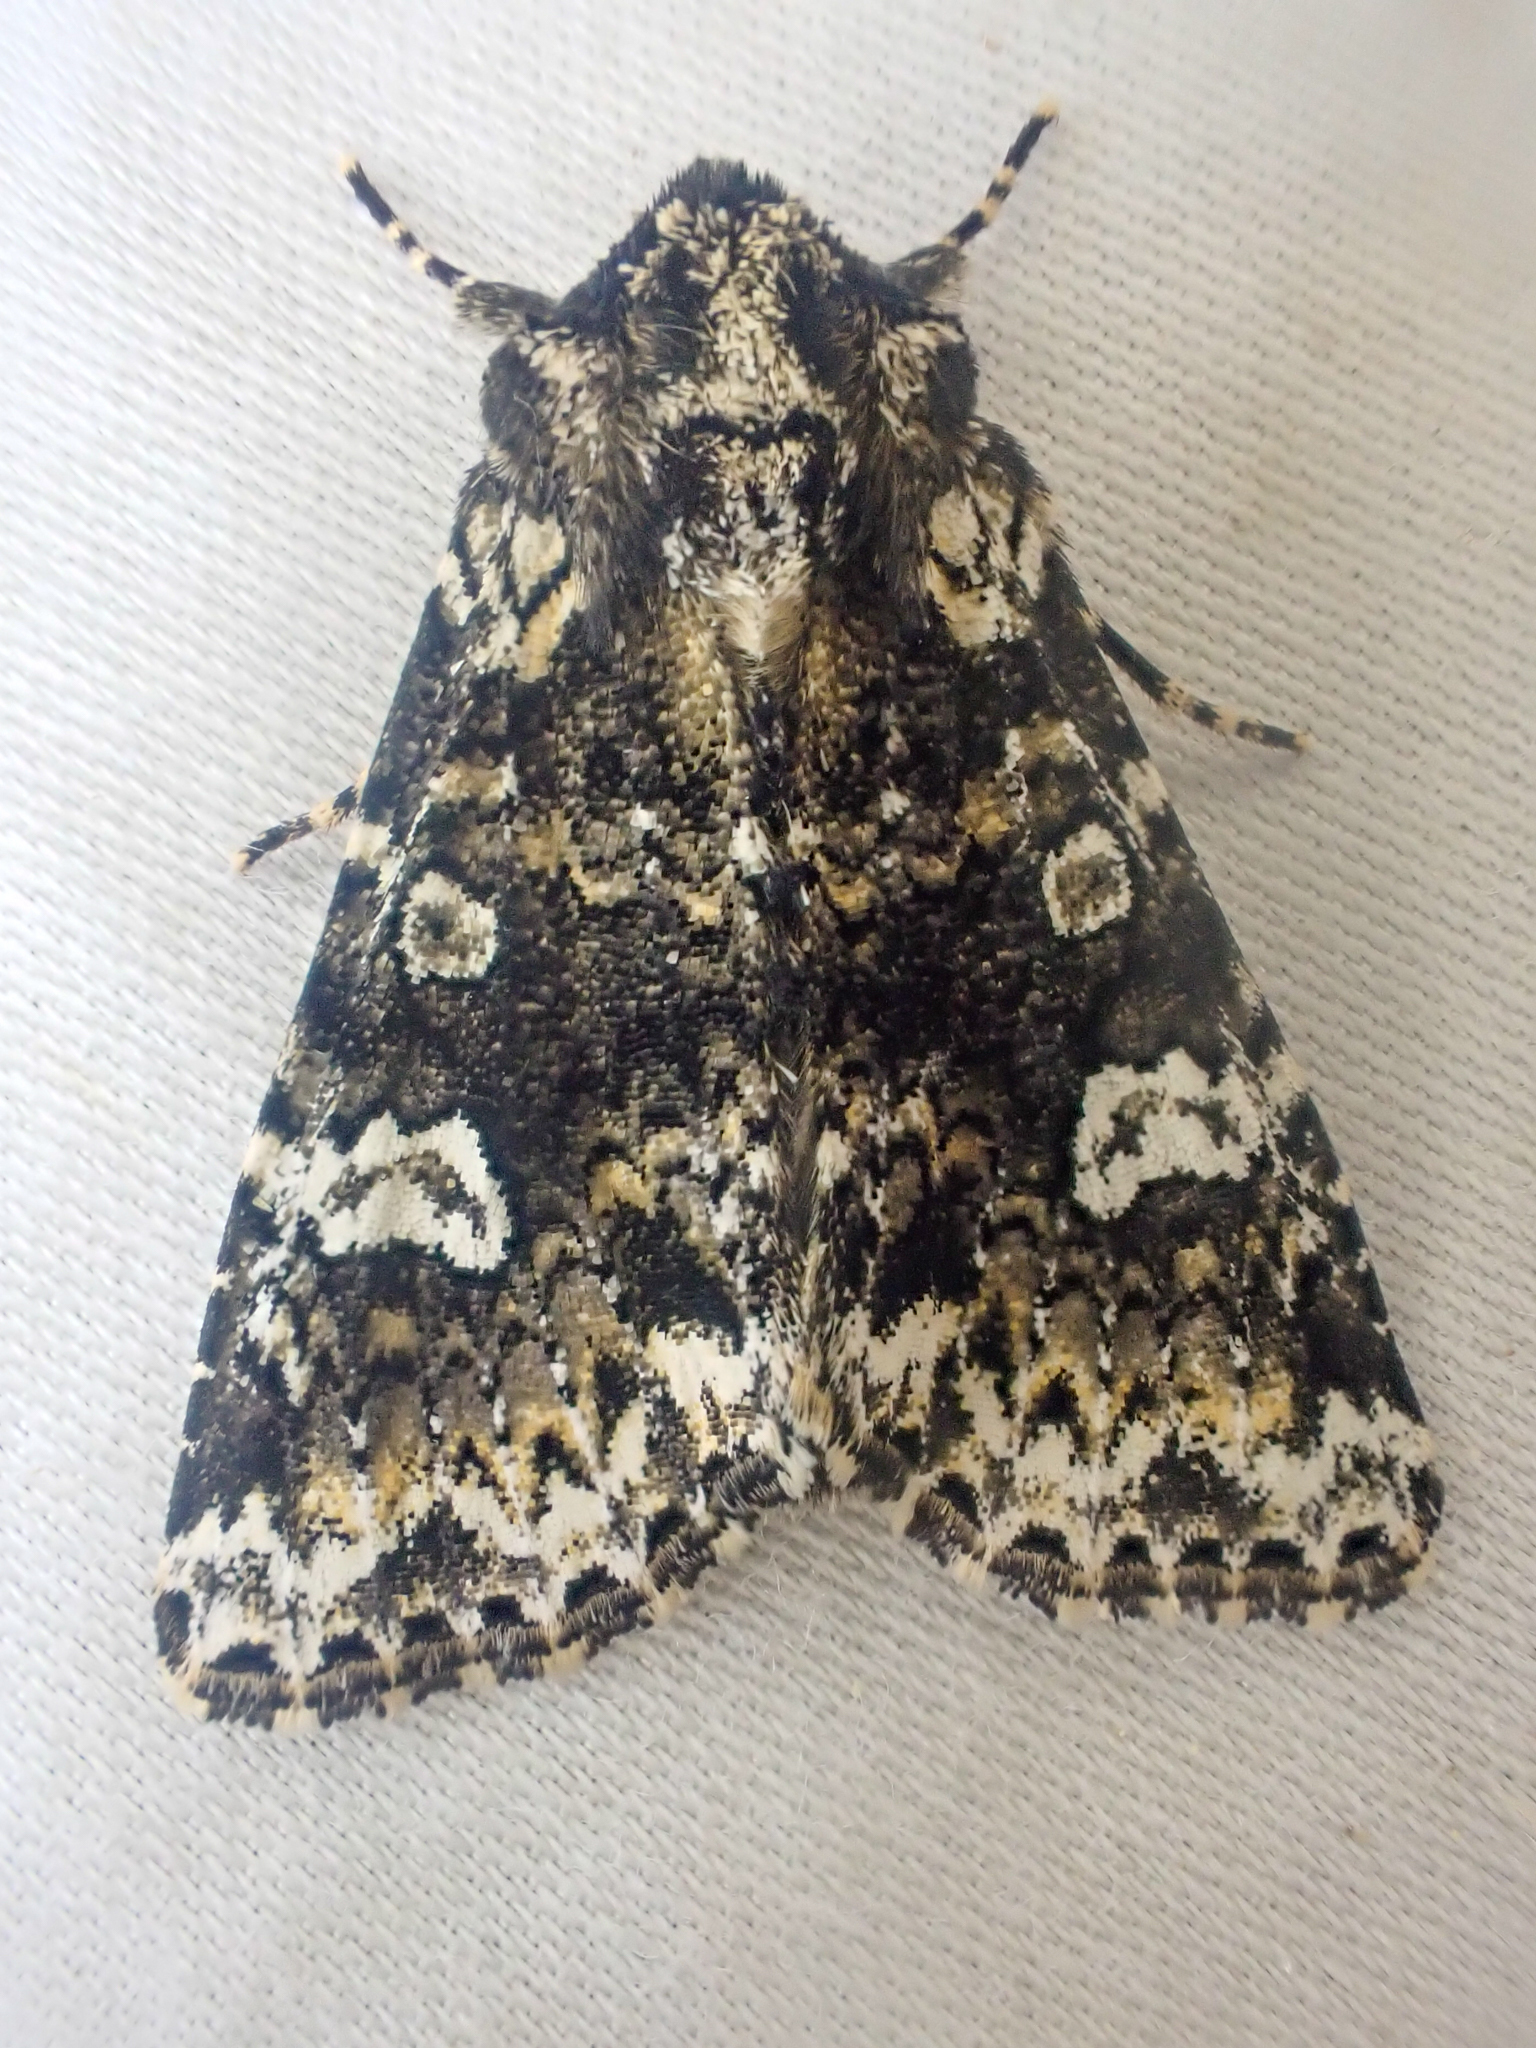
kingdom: Animalia
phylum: Arthropoda
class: Insecta
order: Lepidoptera
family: Noctuidae
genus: Melanchra
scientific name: Melanchra adjuncta
